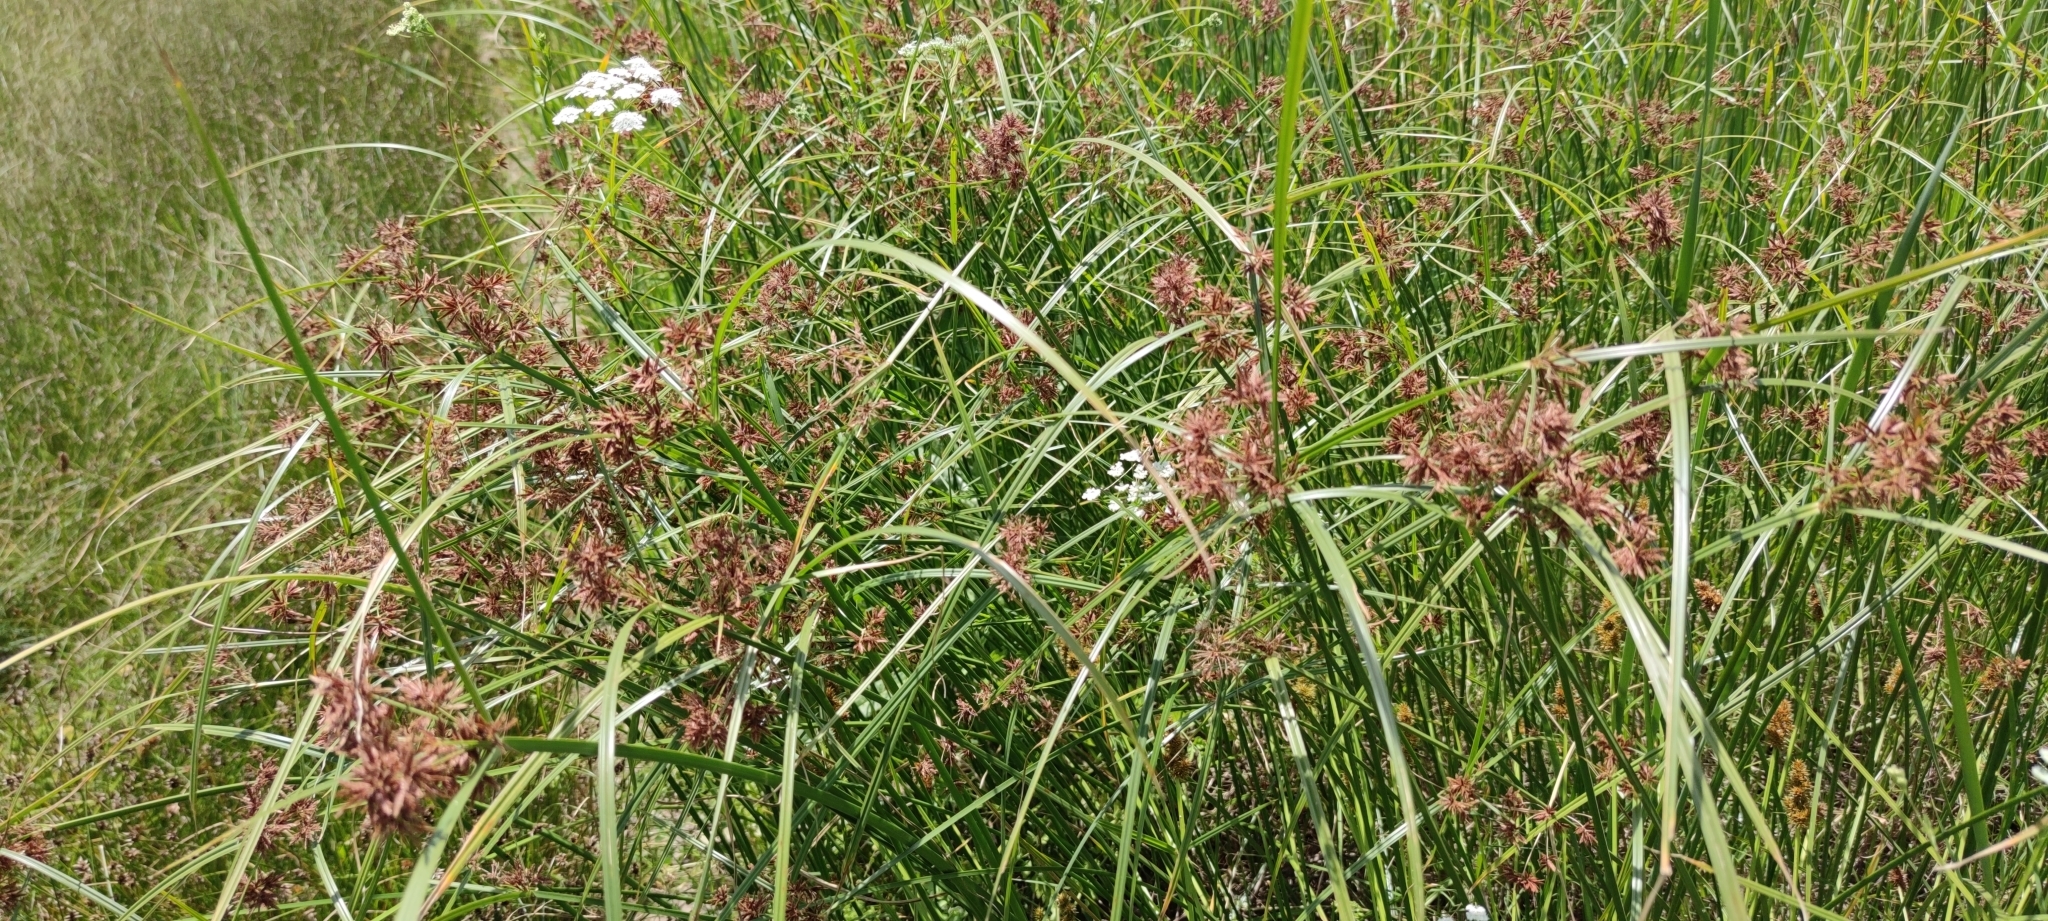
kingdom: Plantae
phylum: Tracheophyta
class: Liliopsida
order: Poales
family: Cyperaceae
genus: Cyperus
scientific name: Cyperus longus
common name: Galingale
